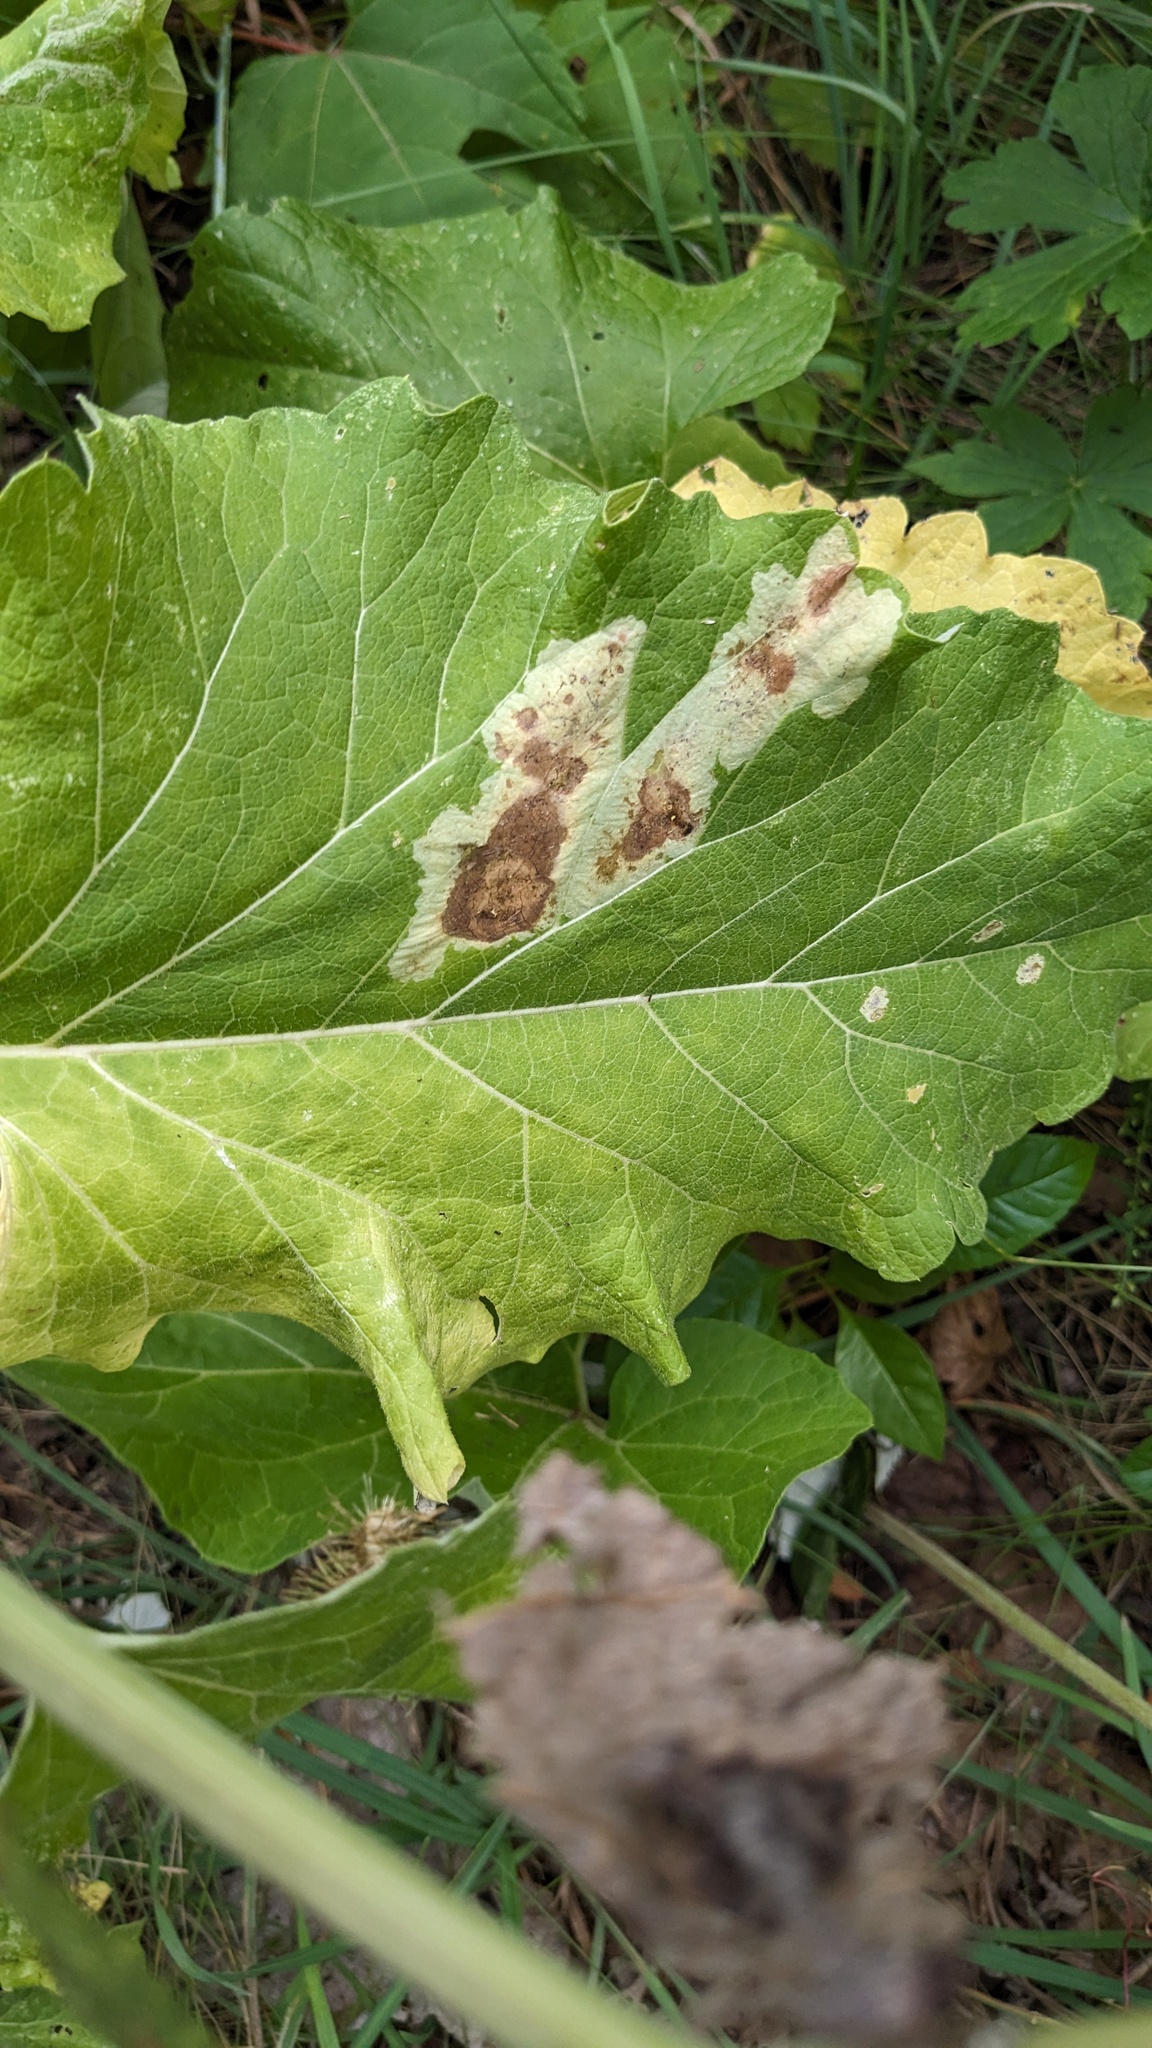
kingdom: Animalia
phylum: Arthropoda
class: Insecta
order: Diptera
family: Agromyzidae
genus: Calycomyza
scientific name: Calycomyza flavinotum
